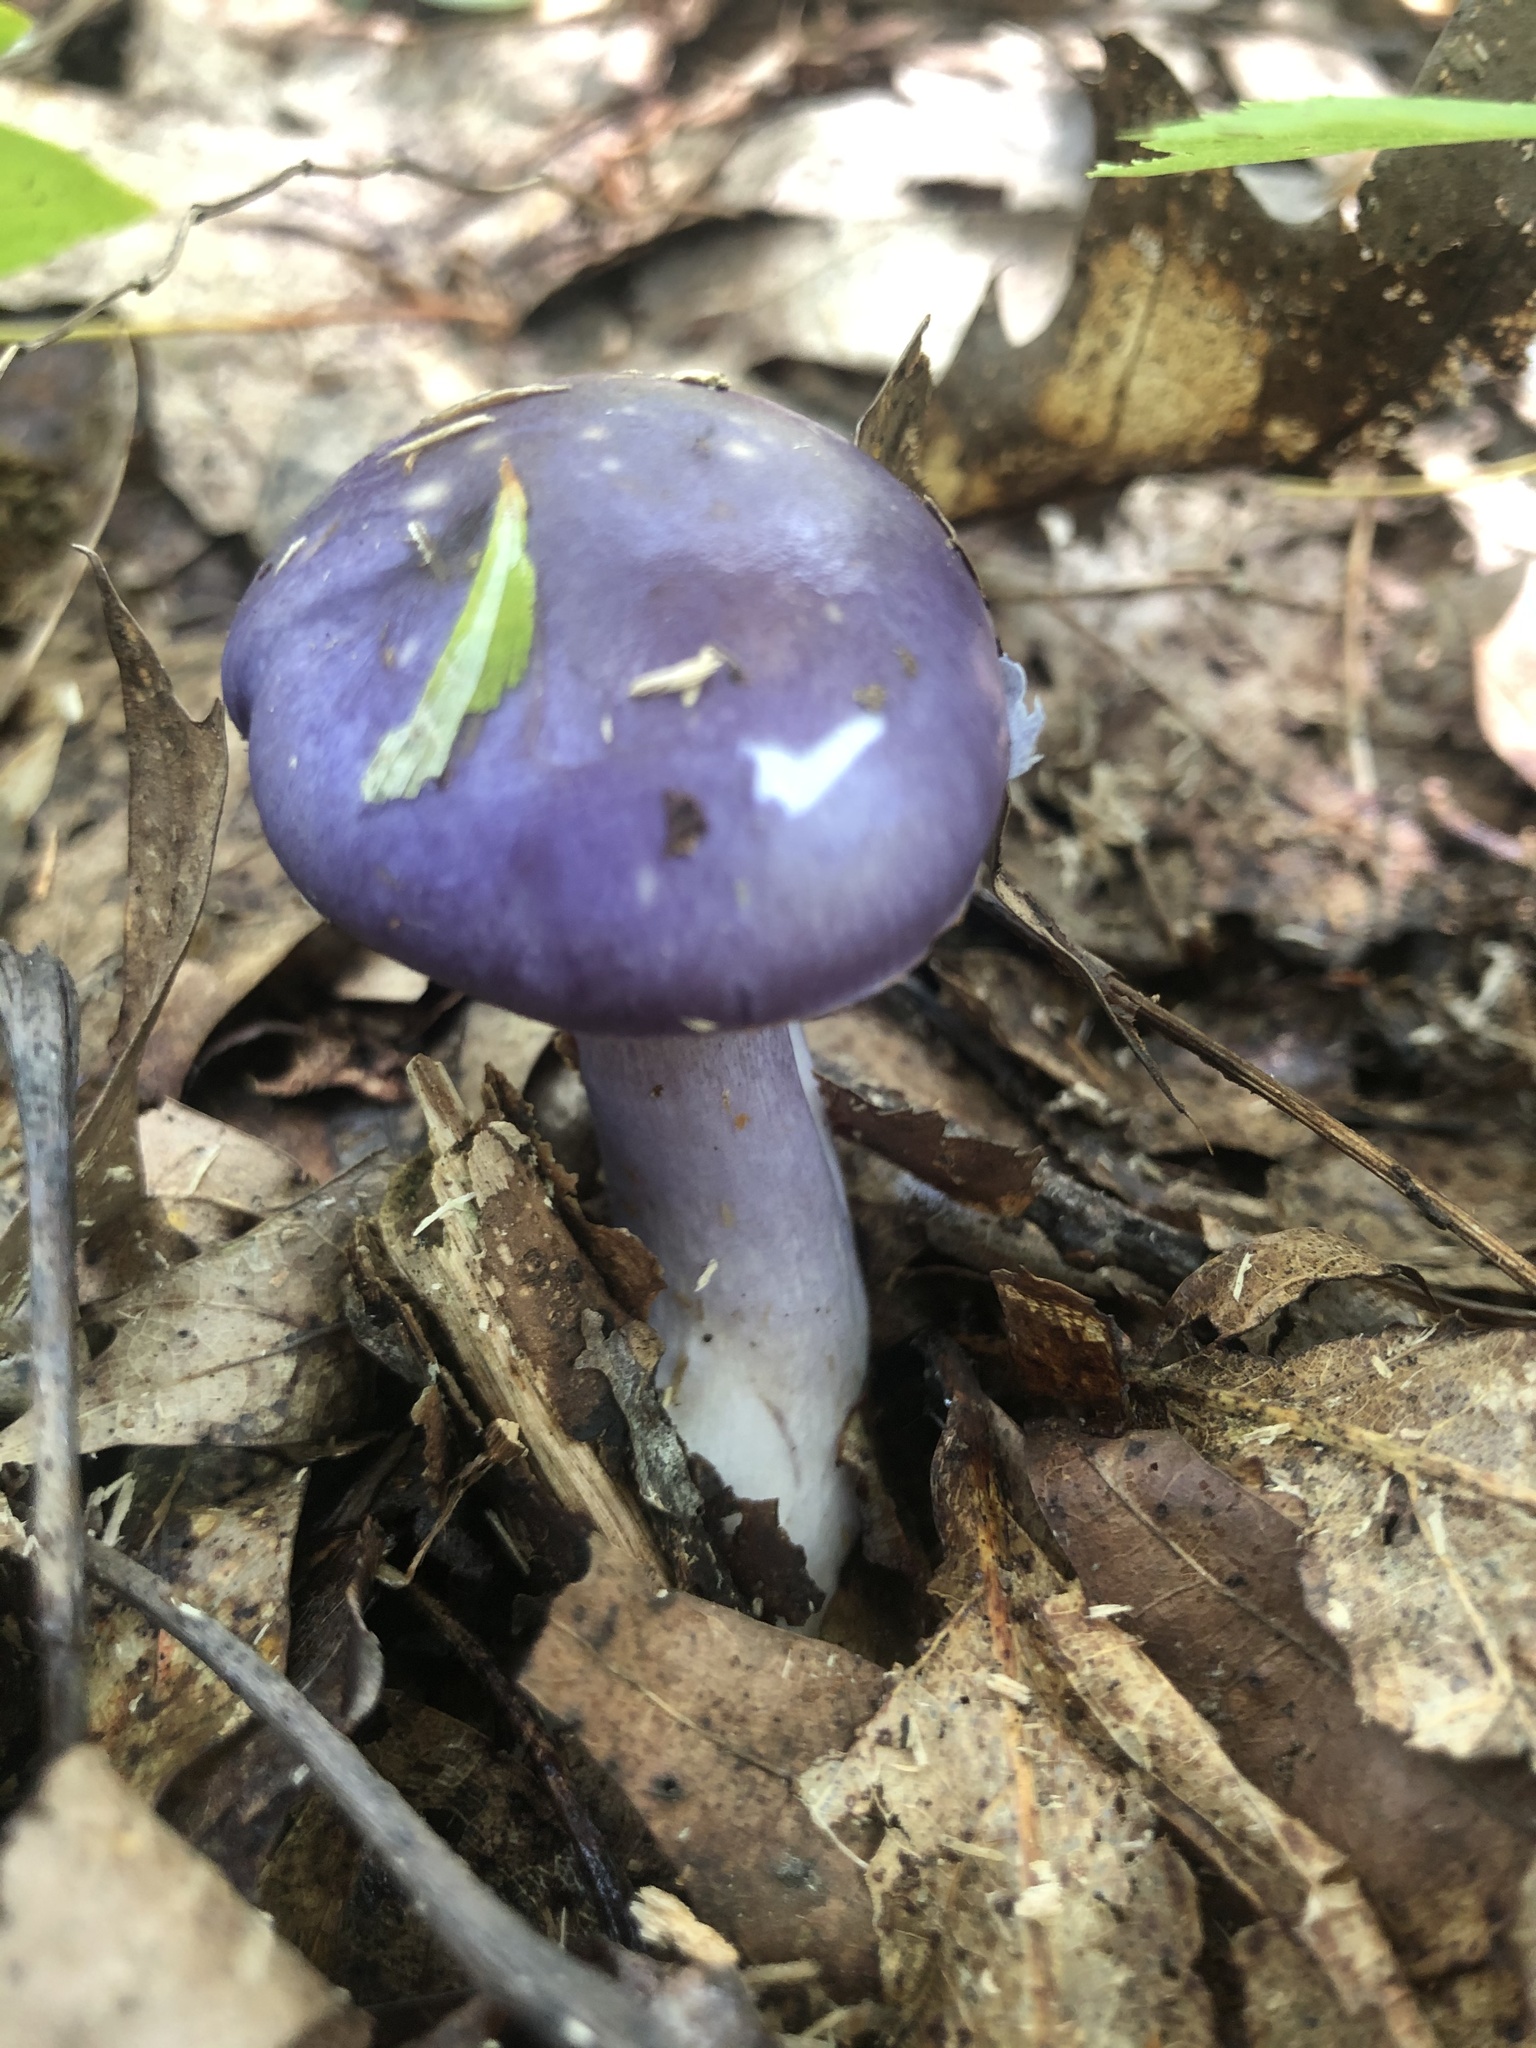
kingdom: Fungi
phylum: Basidiomycota
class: Agaricomycetes
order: Agaricales
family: Cortinariaceae
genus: Cortinarius
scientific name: Cortinarius iodes
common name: Viscid violet cort
